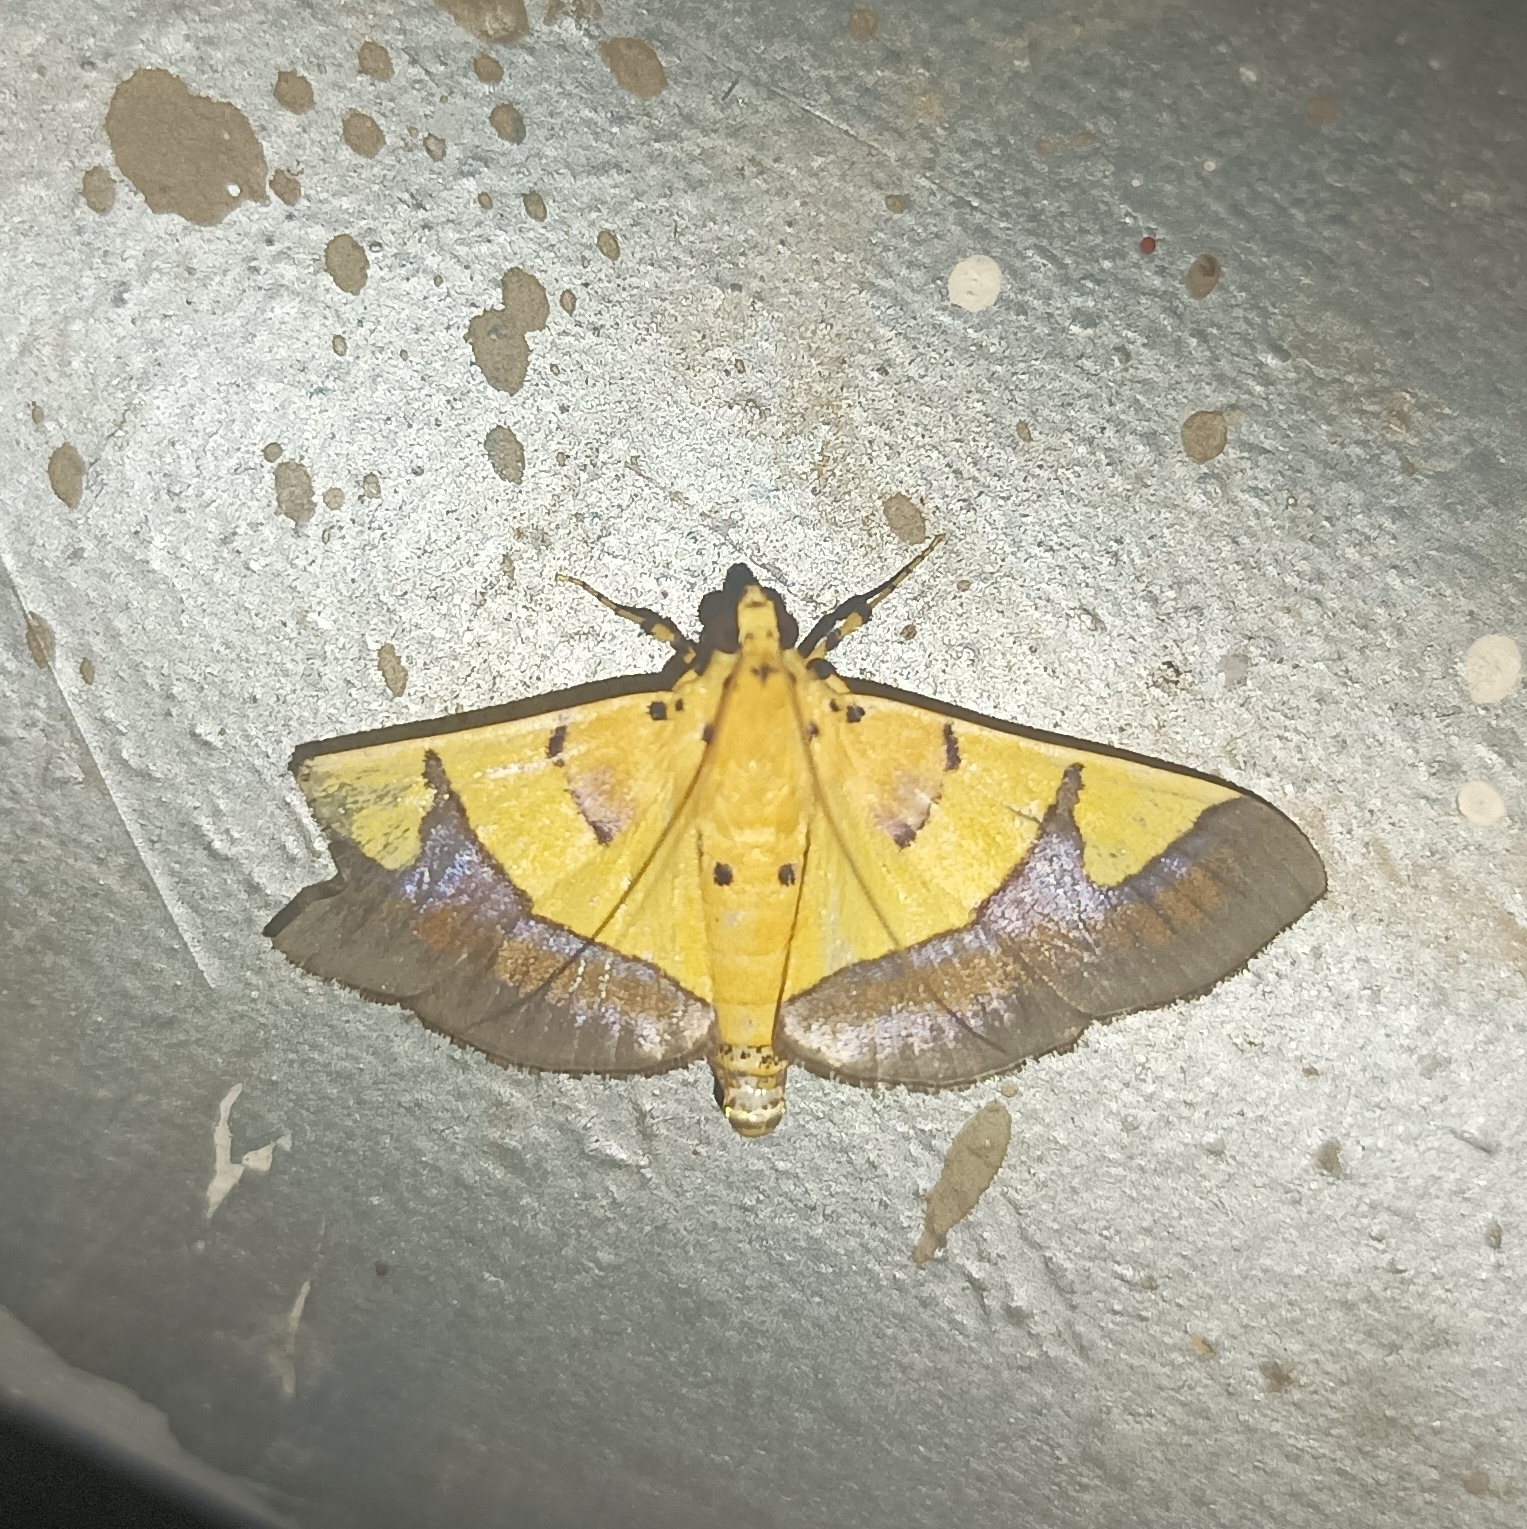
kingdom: Animalia
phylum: Arthropoda
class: Insecta
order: Lepidoptera
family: Crambidae
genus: Botyodes
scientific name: Botyodes
